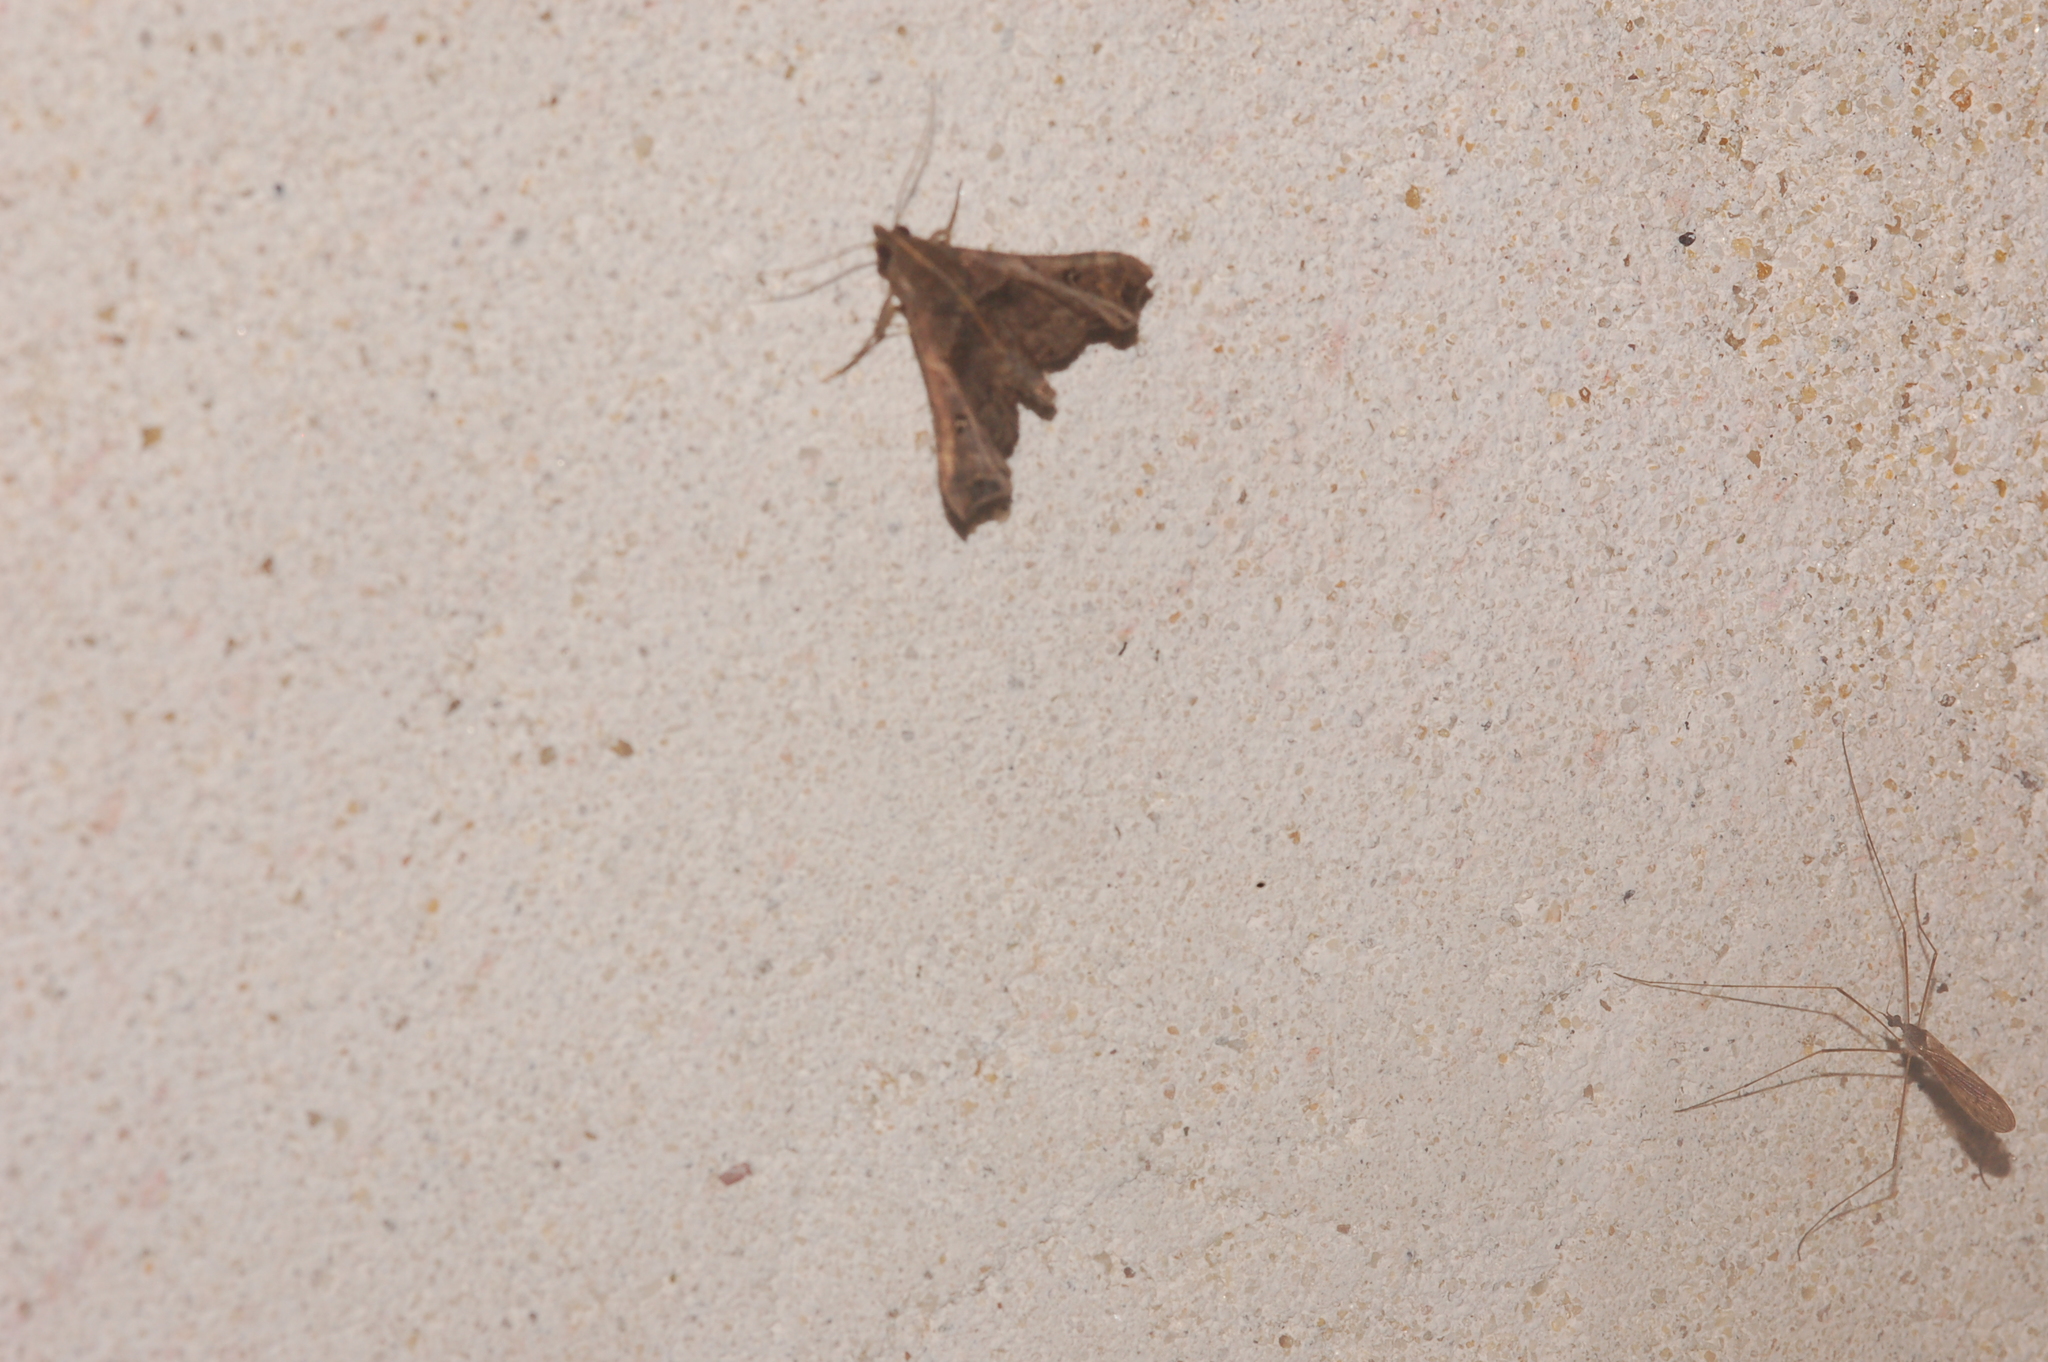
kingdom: Animalia
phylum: Arthropoda
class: Insecta
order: Lepidoptera
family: Erebidae
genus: Palthis
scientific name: Palthis asopialis
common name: Faint-spotted palthis moth
